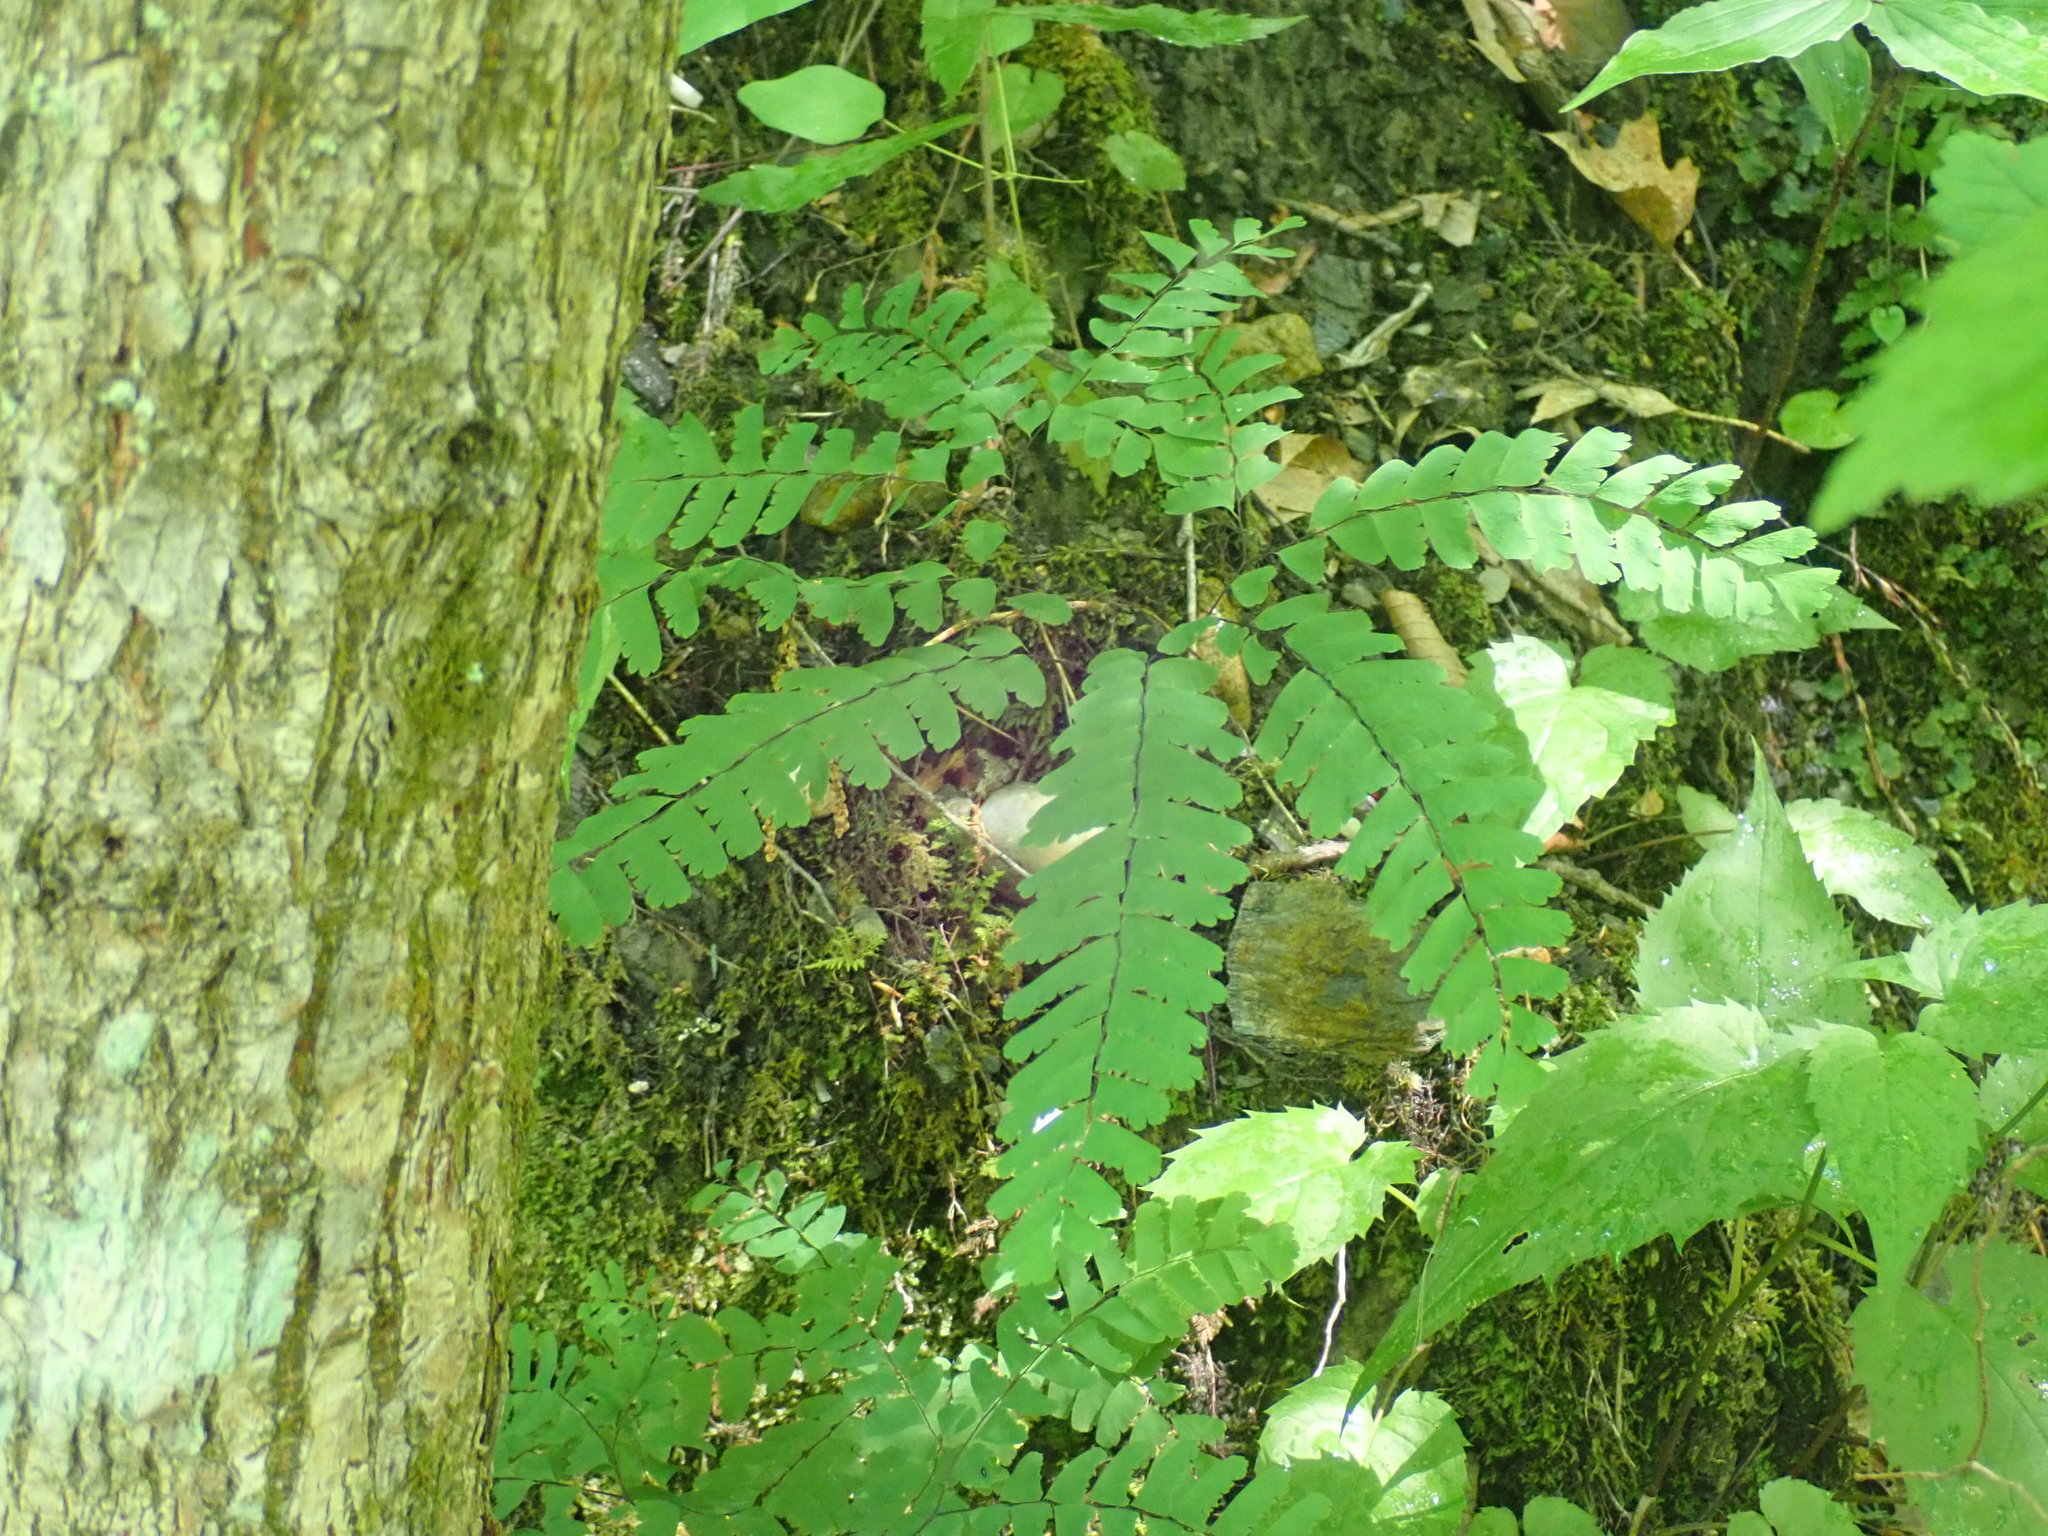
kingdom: Plantae
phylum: Tracheophyta
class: Polypodiopsida
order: Polypodiales
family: Pteridaceae
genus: Adiantum
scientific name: Adiantum pedatum
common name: Five-finger fern
